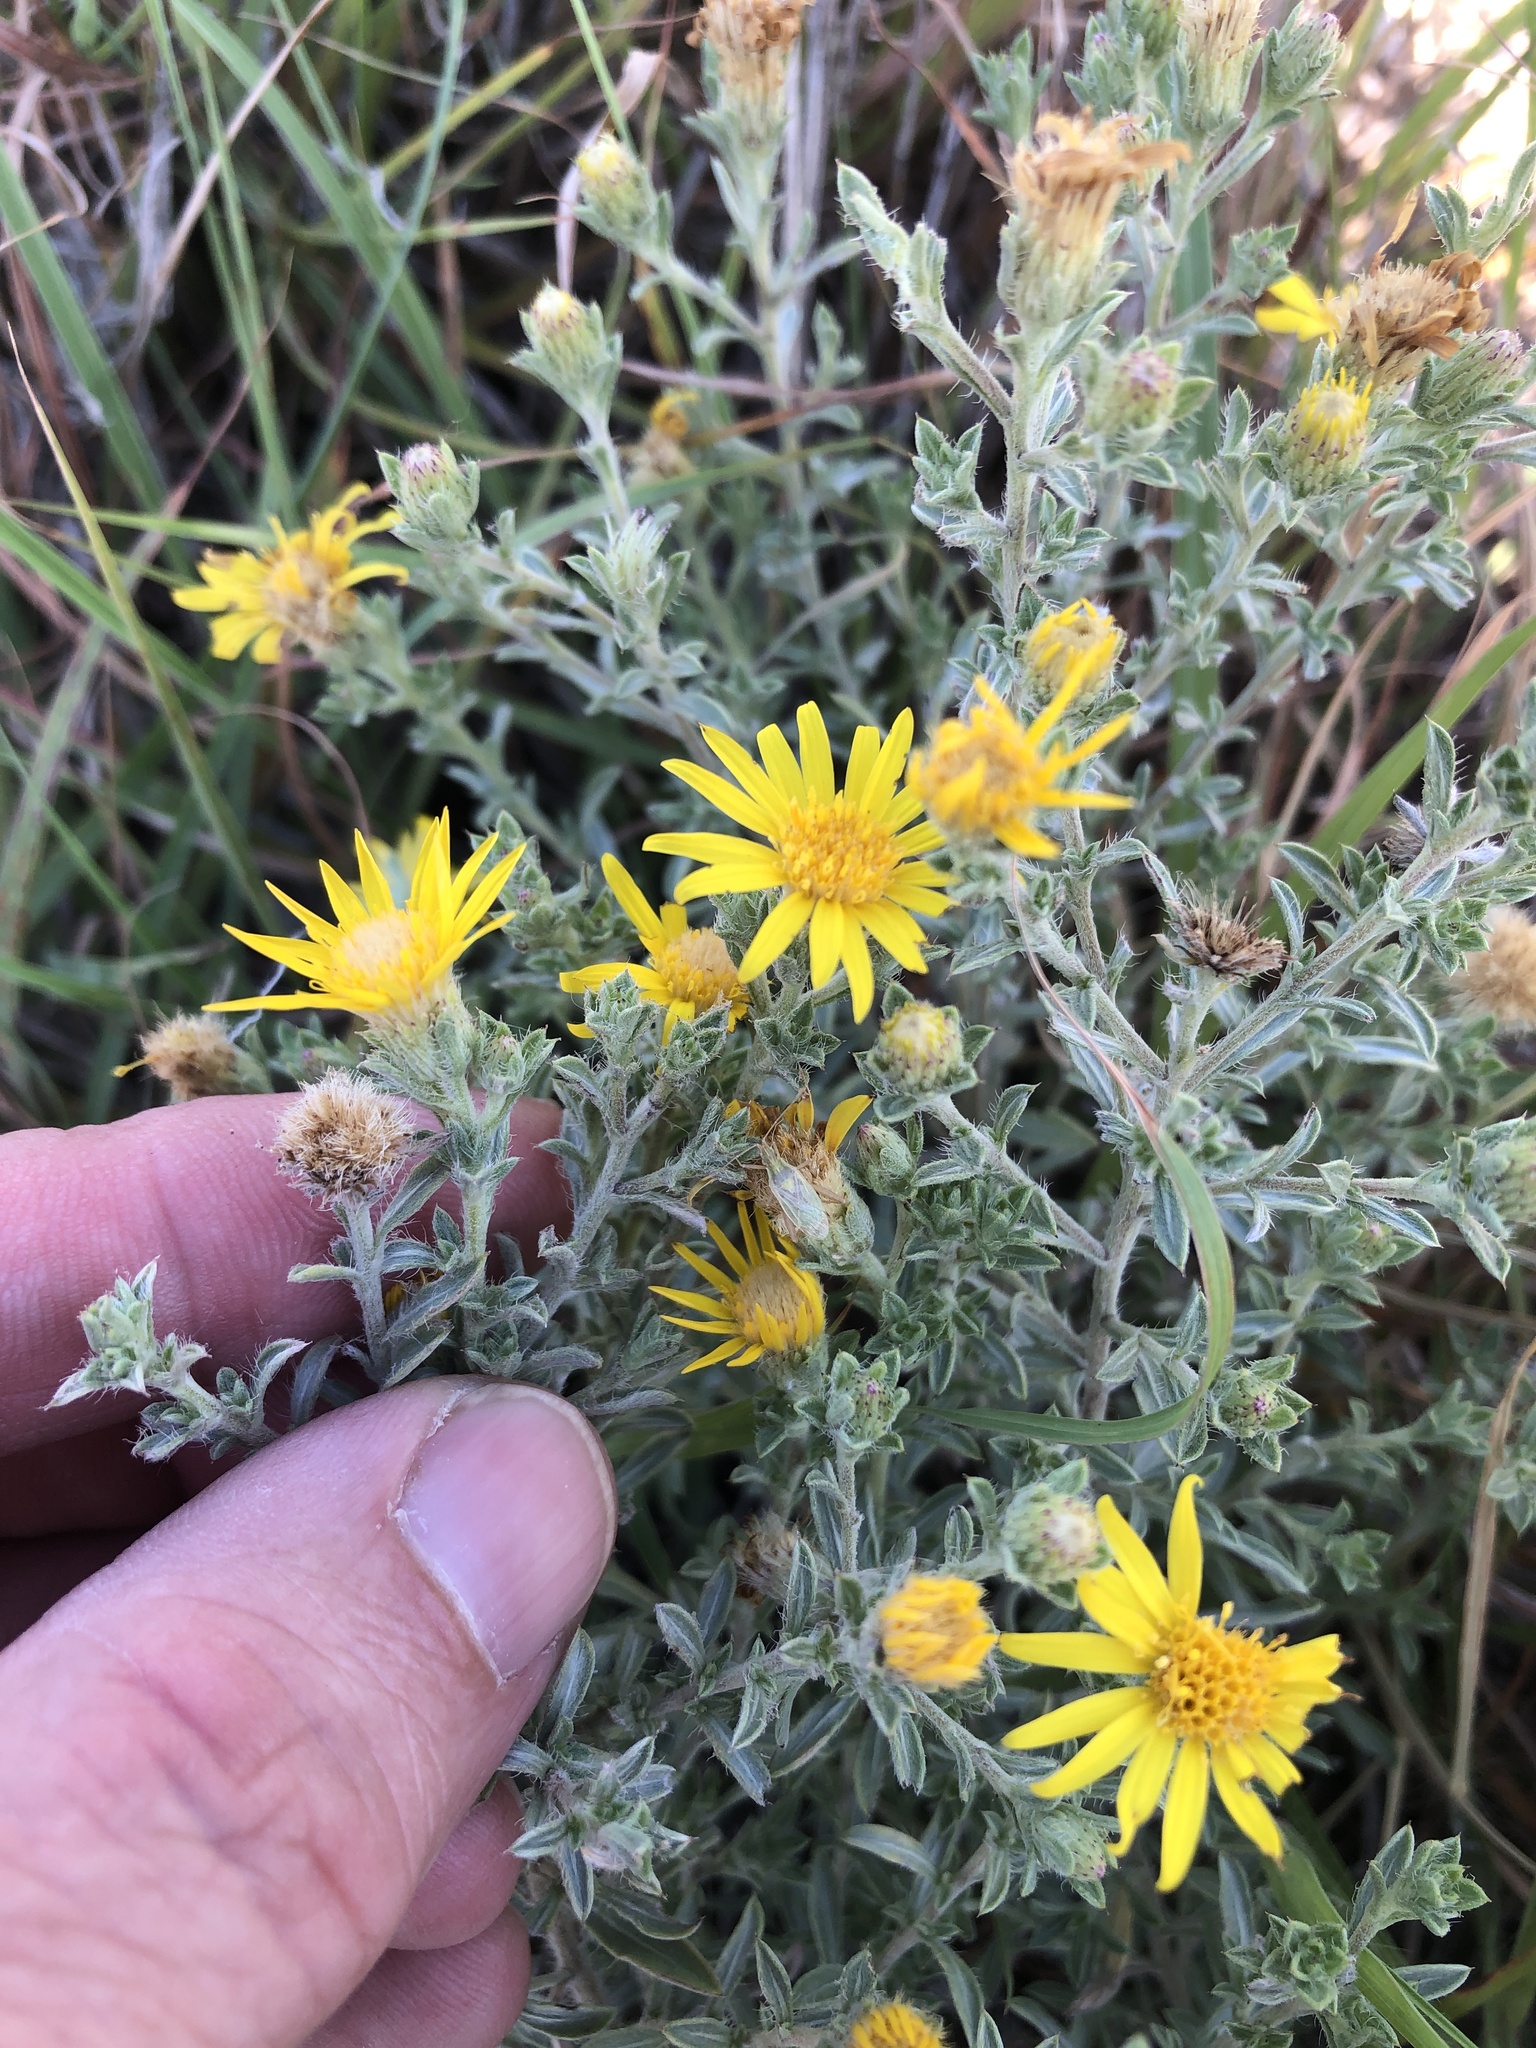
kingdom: Plantae
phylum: Tracheophyta
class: Magnoliopsida
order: Asterales
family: Asteraceae
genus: Heterotheca
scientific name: Heterotheca canescens
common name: Hoary golden-aster
